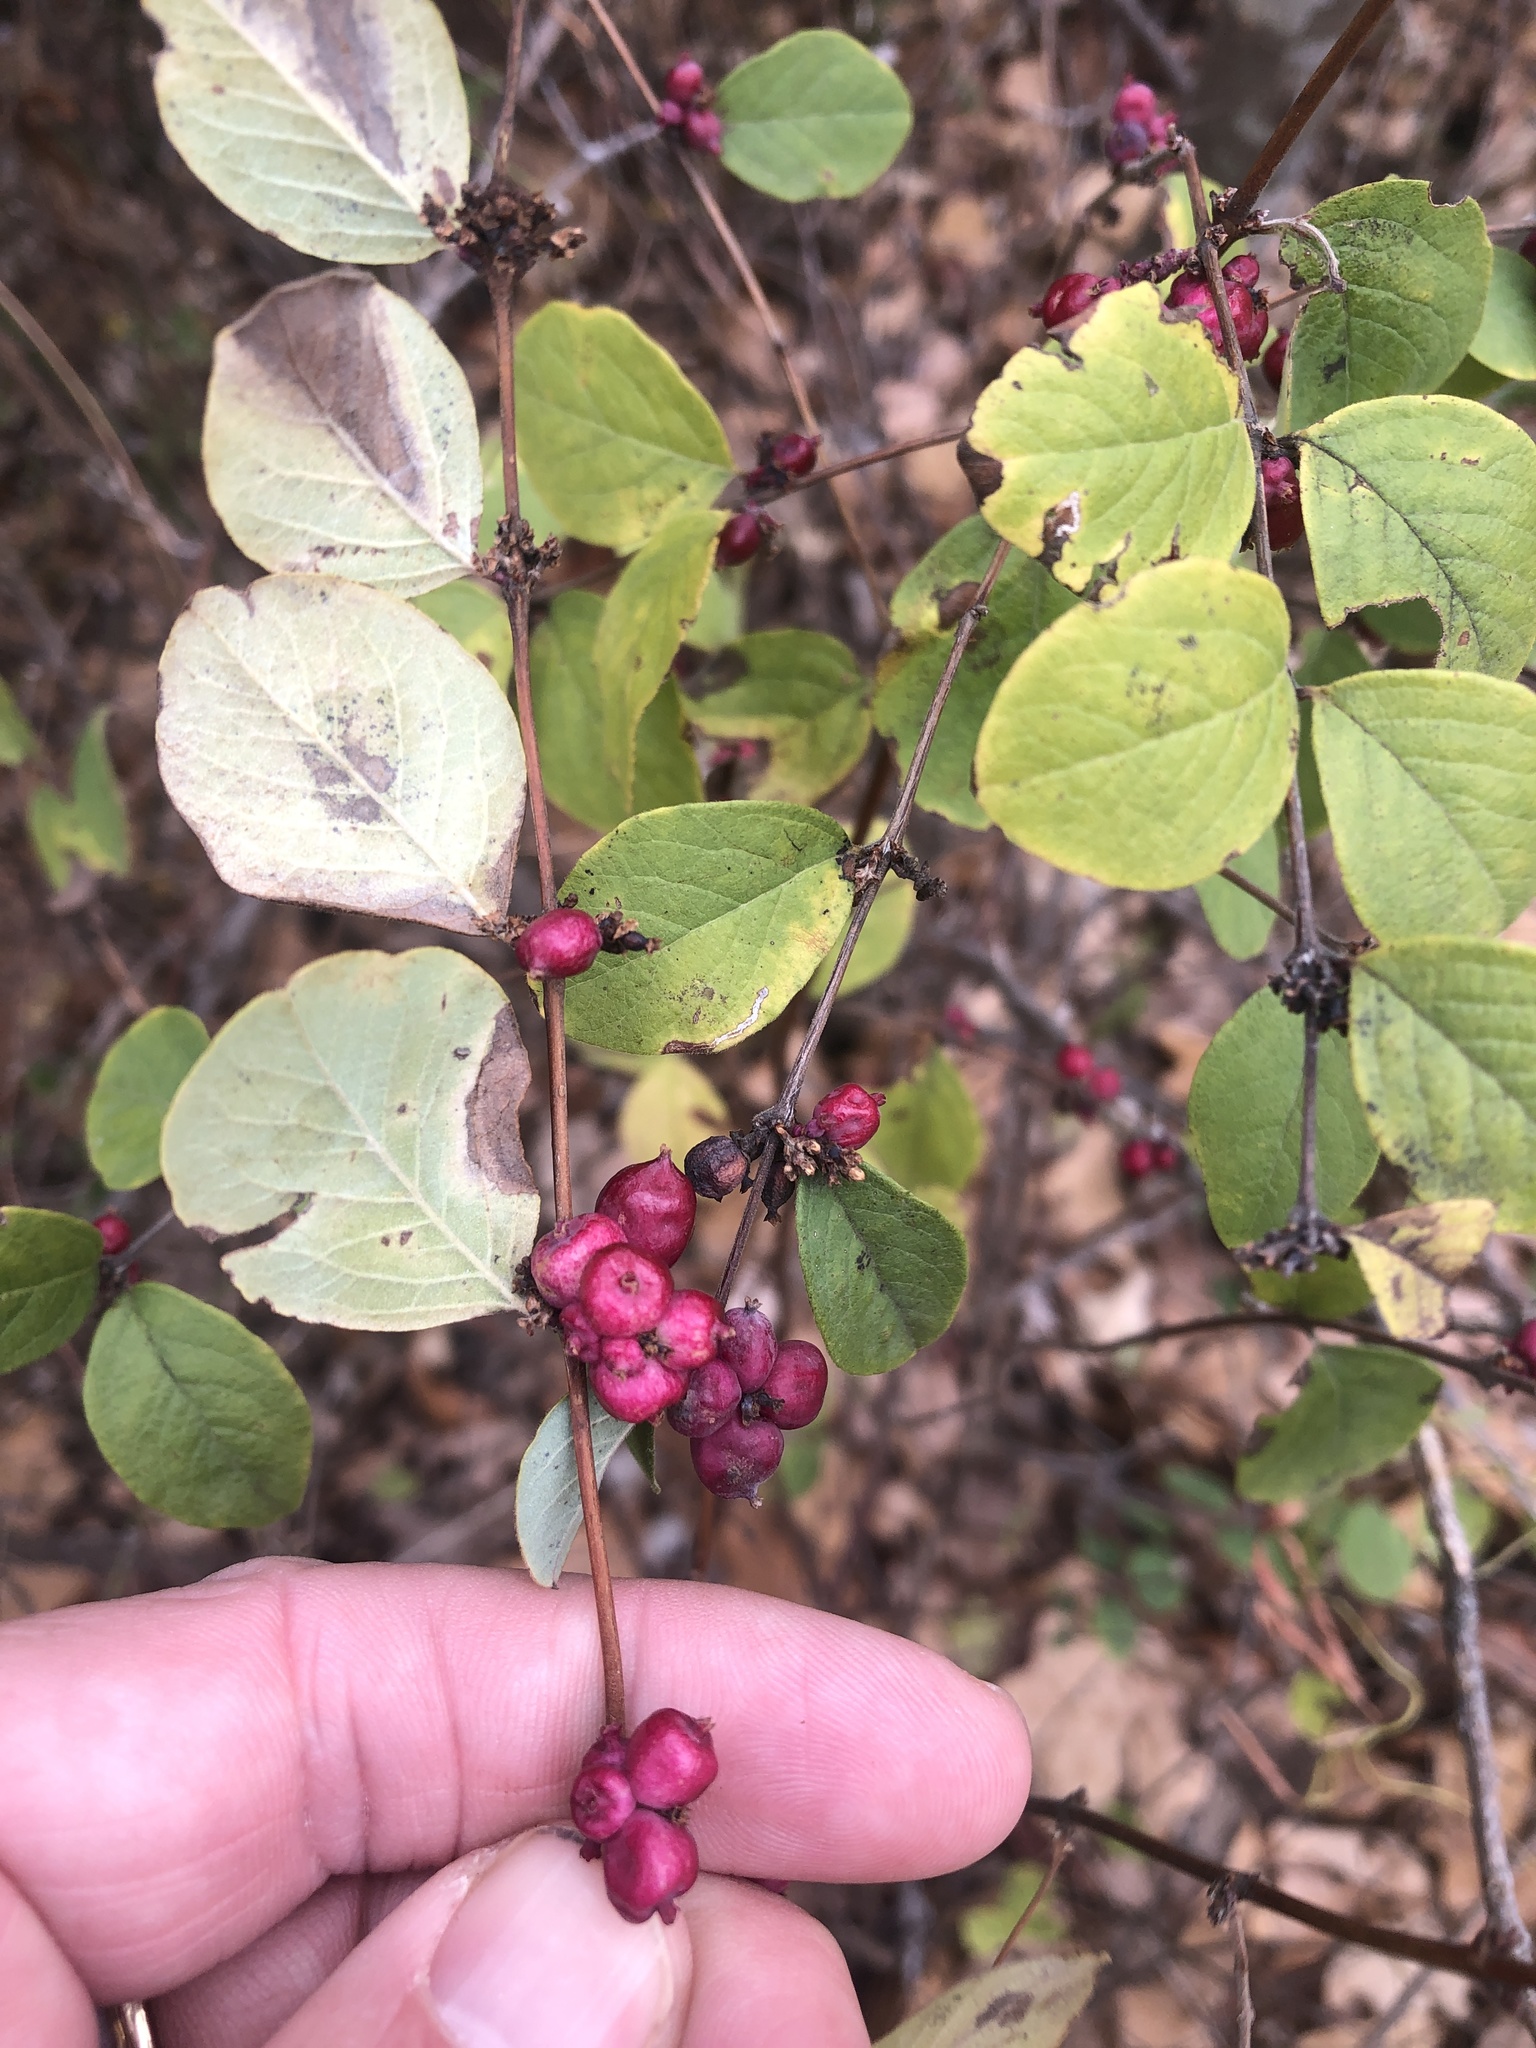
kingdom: Plantae
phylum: Tracheophyta
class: Magnoliopsida
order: Dipsacales
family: Caprifoliaceae
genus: Symphoricarpos
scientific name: Symphoricarpos orbiculatus
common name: Coralberry
